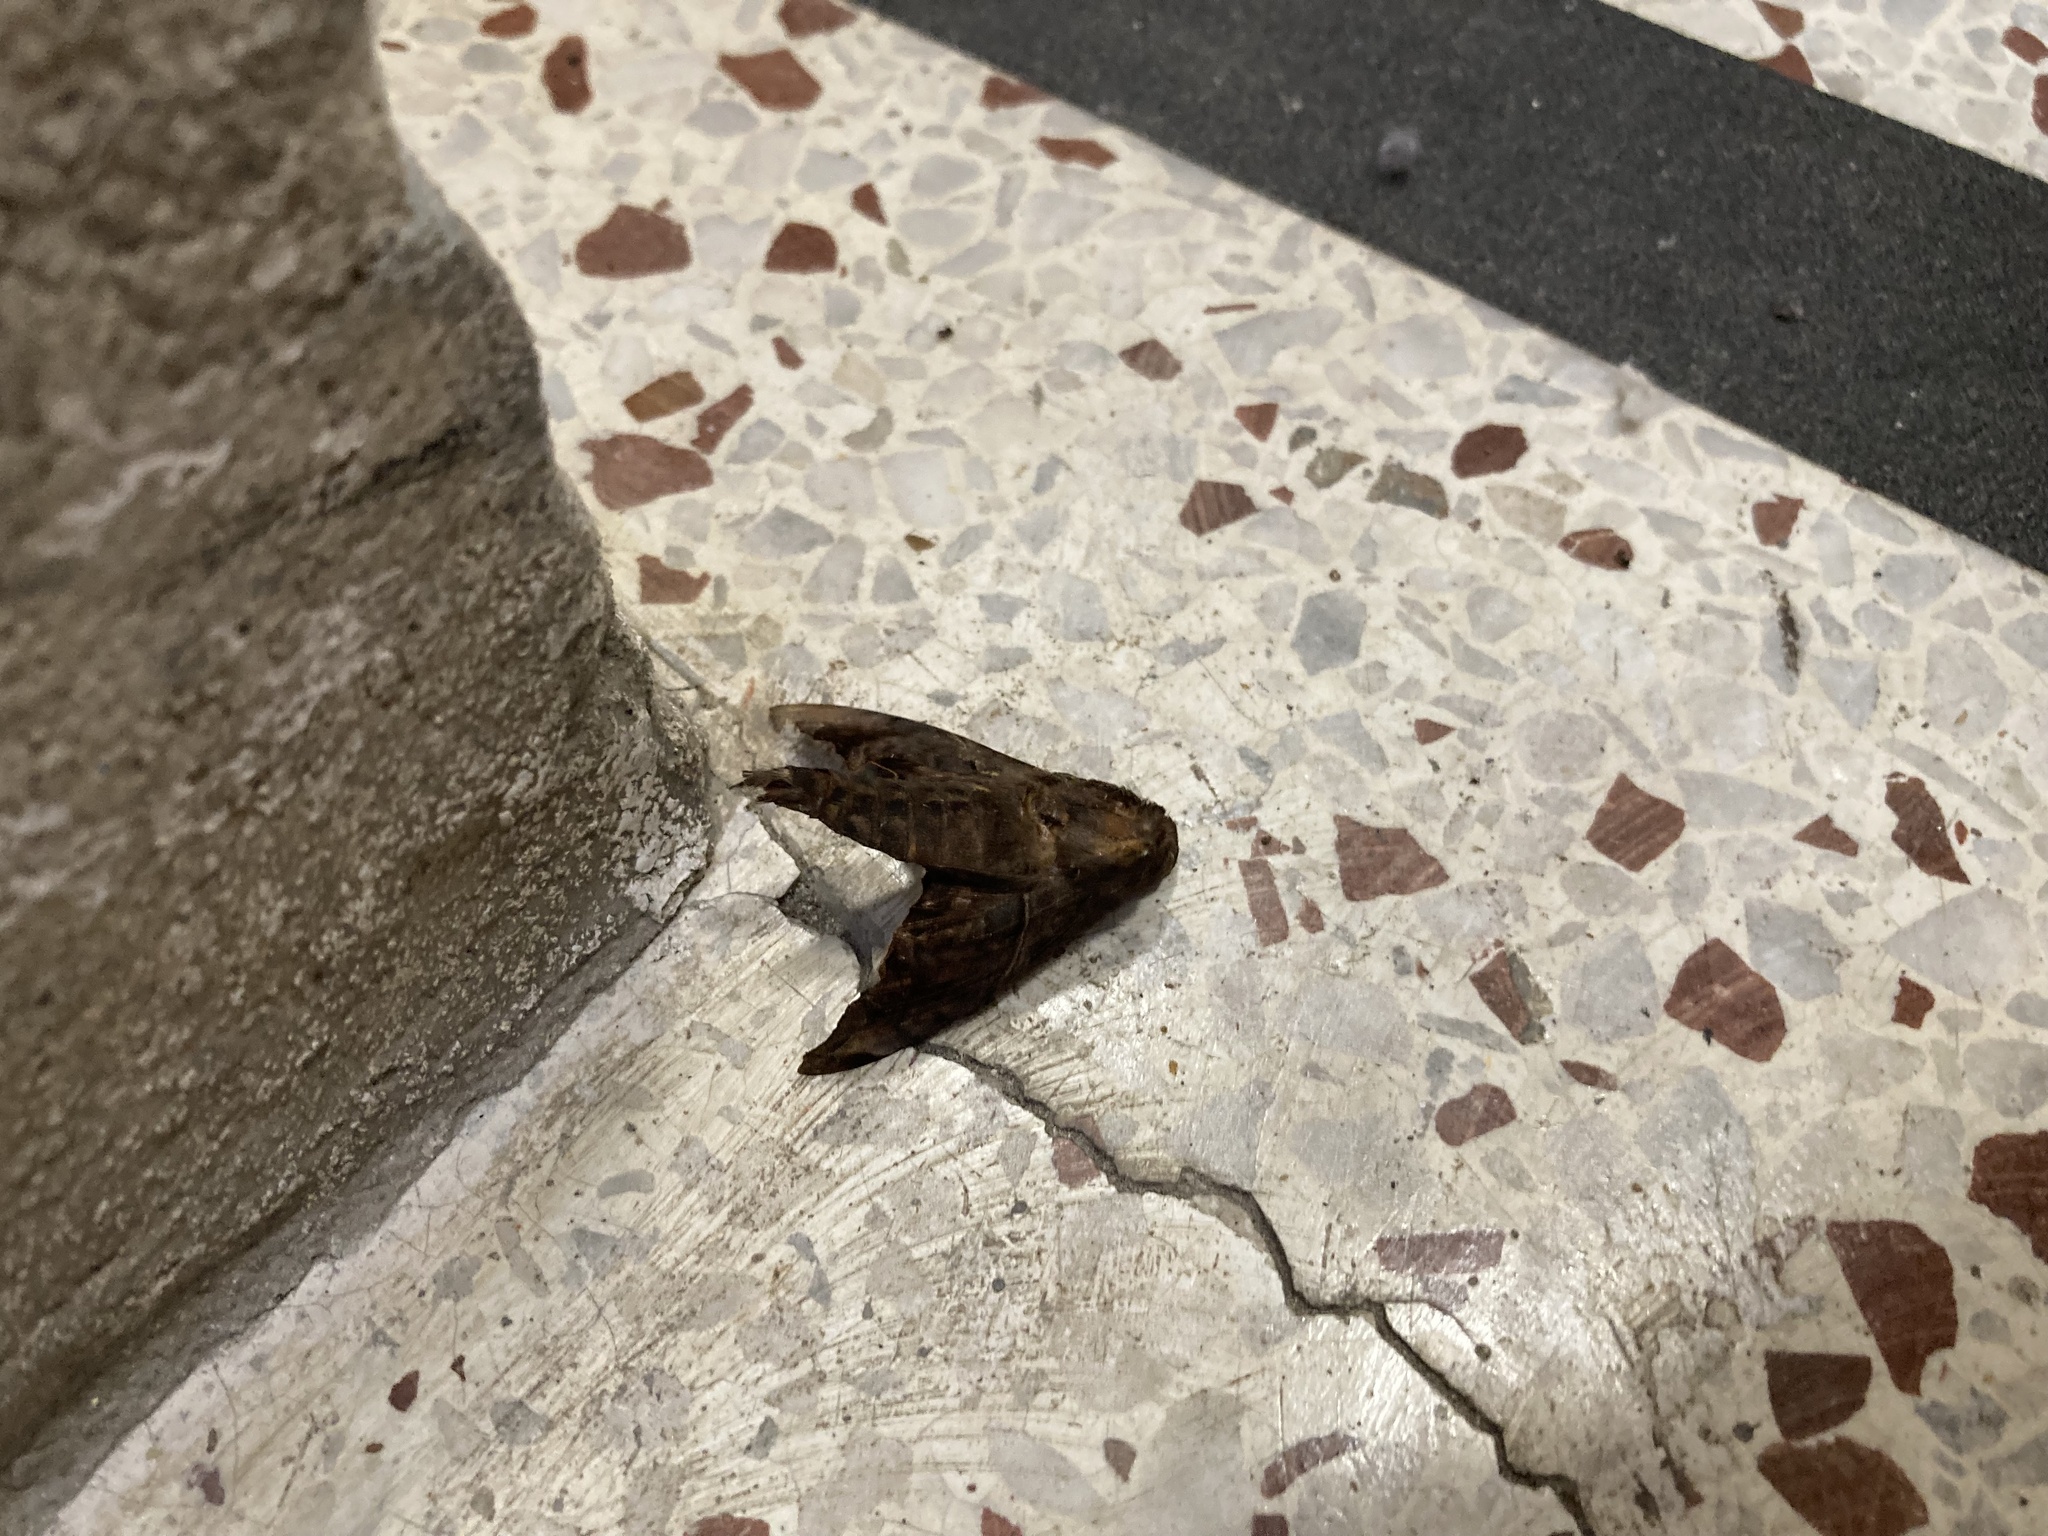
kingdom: Animalia
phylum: Arthropoda
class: Insecta
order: Lepidoptera
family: Sphingidae
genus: Enyo
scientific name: Enyo lugubris
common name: Mournful sphinx
